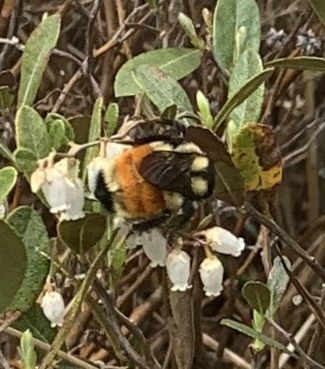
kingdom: Animalia
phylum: Arthropoda
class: Insecta
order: Hymenoptera
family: Apidae
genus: Bombus
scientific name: Bombus ternarius
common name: Tri-colored bumble bee
